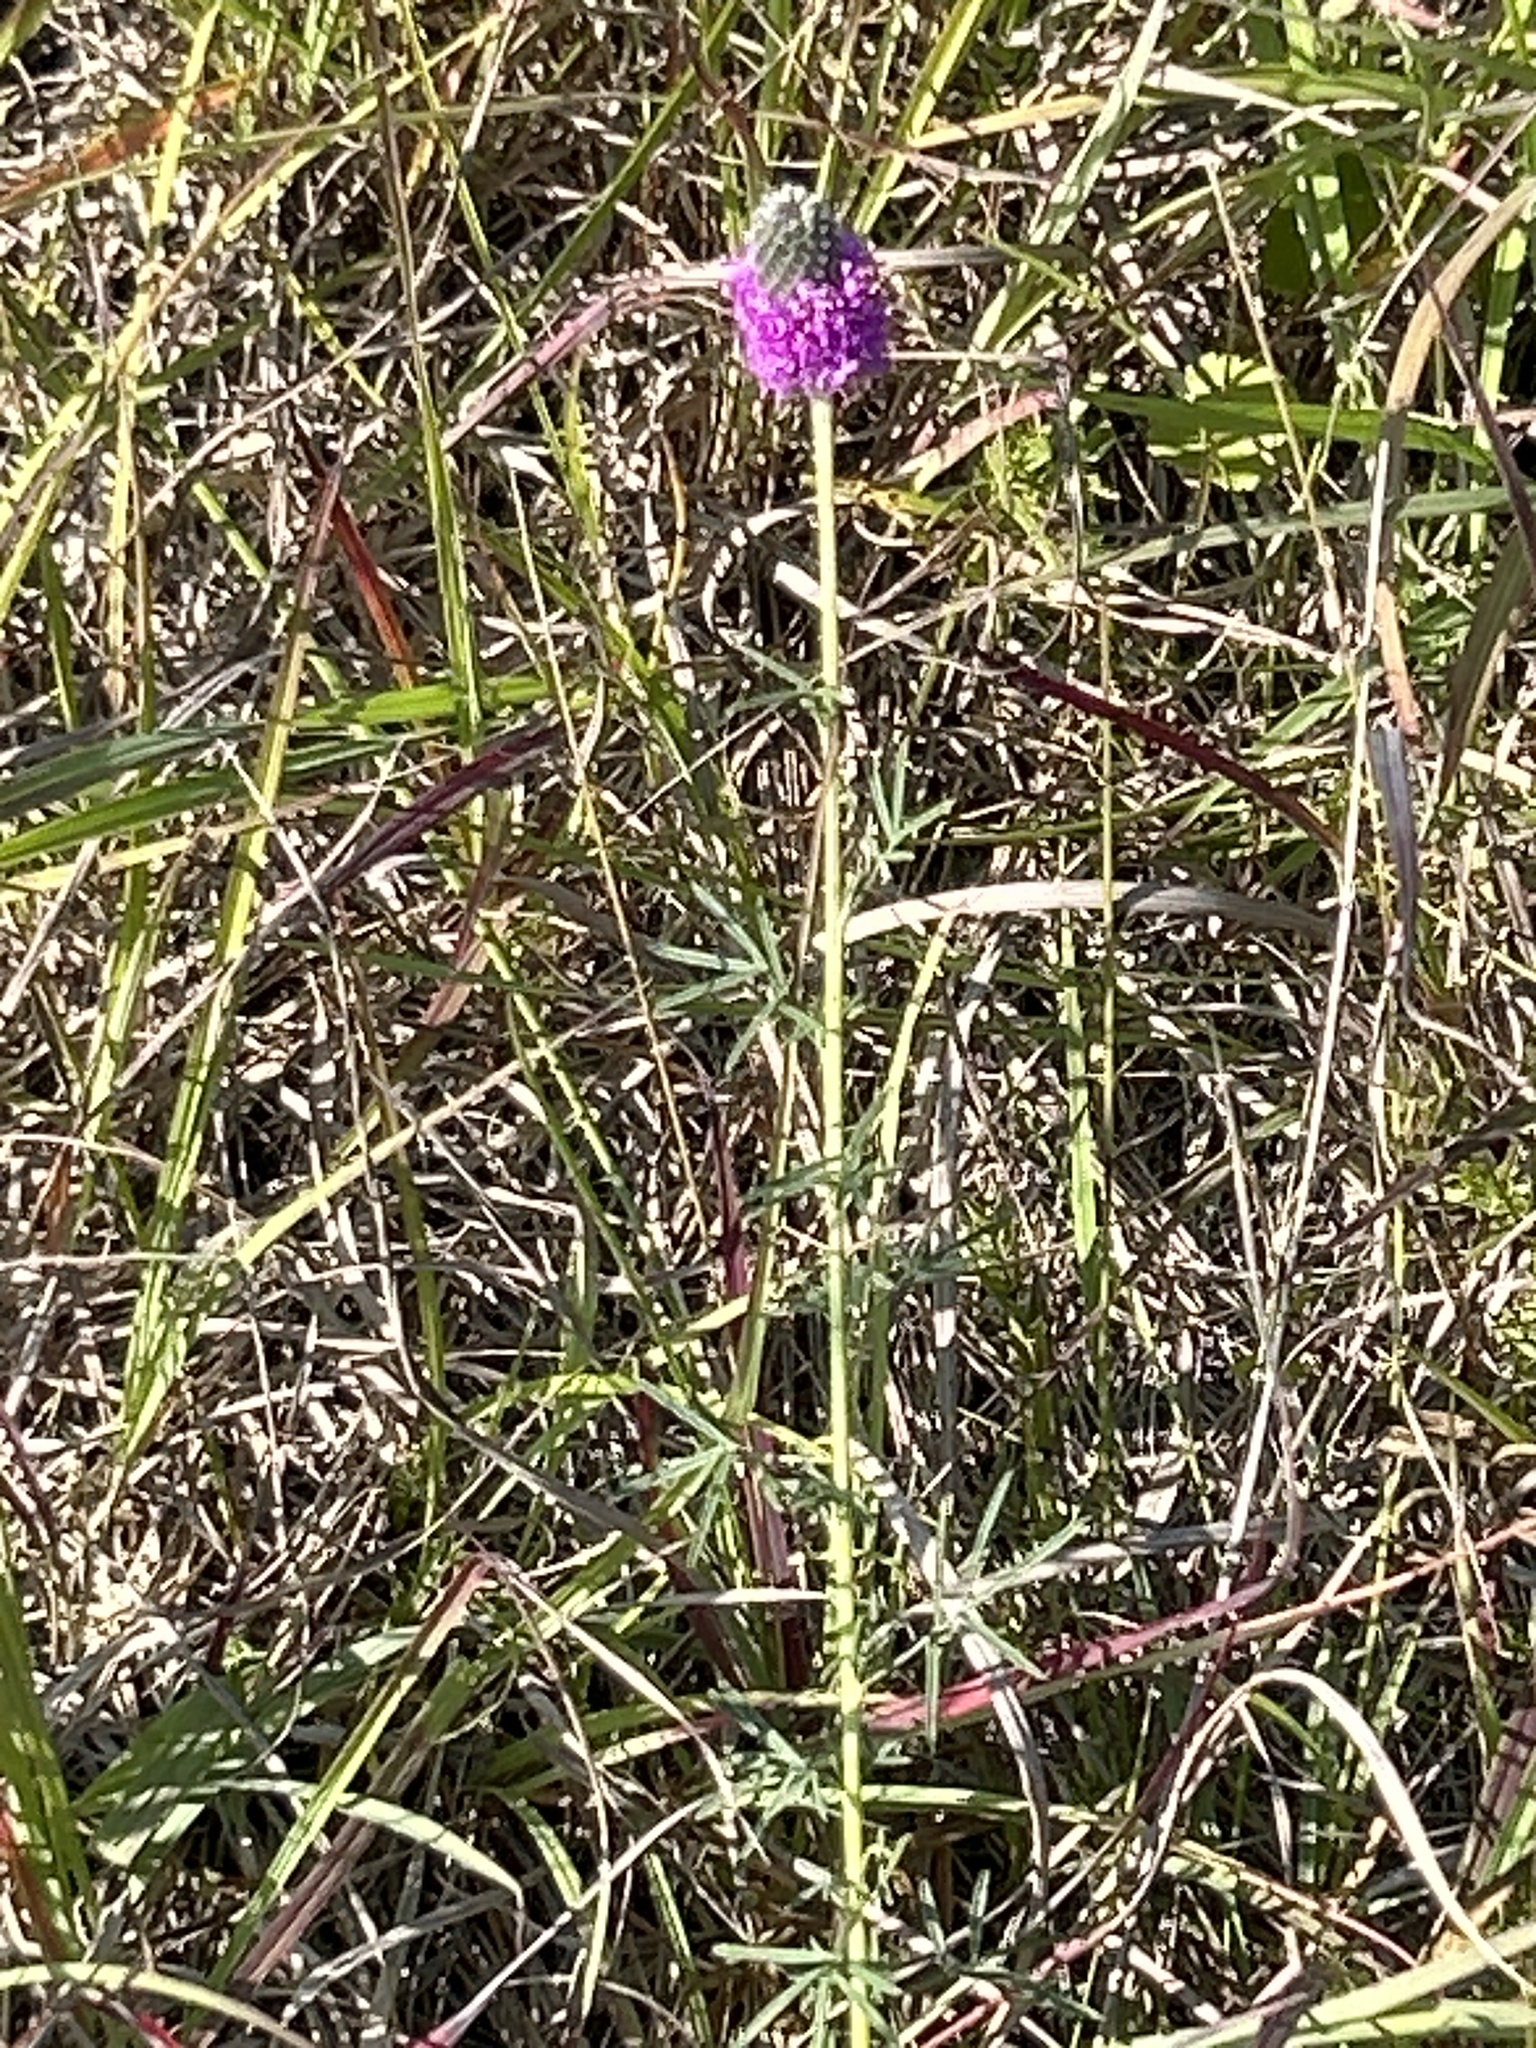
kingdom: Plantae
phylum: Tracheophyta
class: Magnoliopsida
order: Fabales
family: Fabaceae
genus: Dalea
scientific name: Dalea purpurea
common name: Purple prairie-clover
